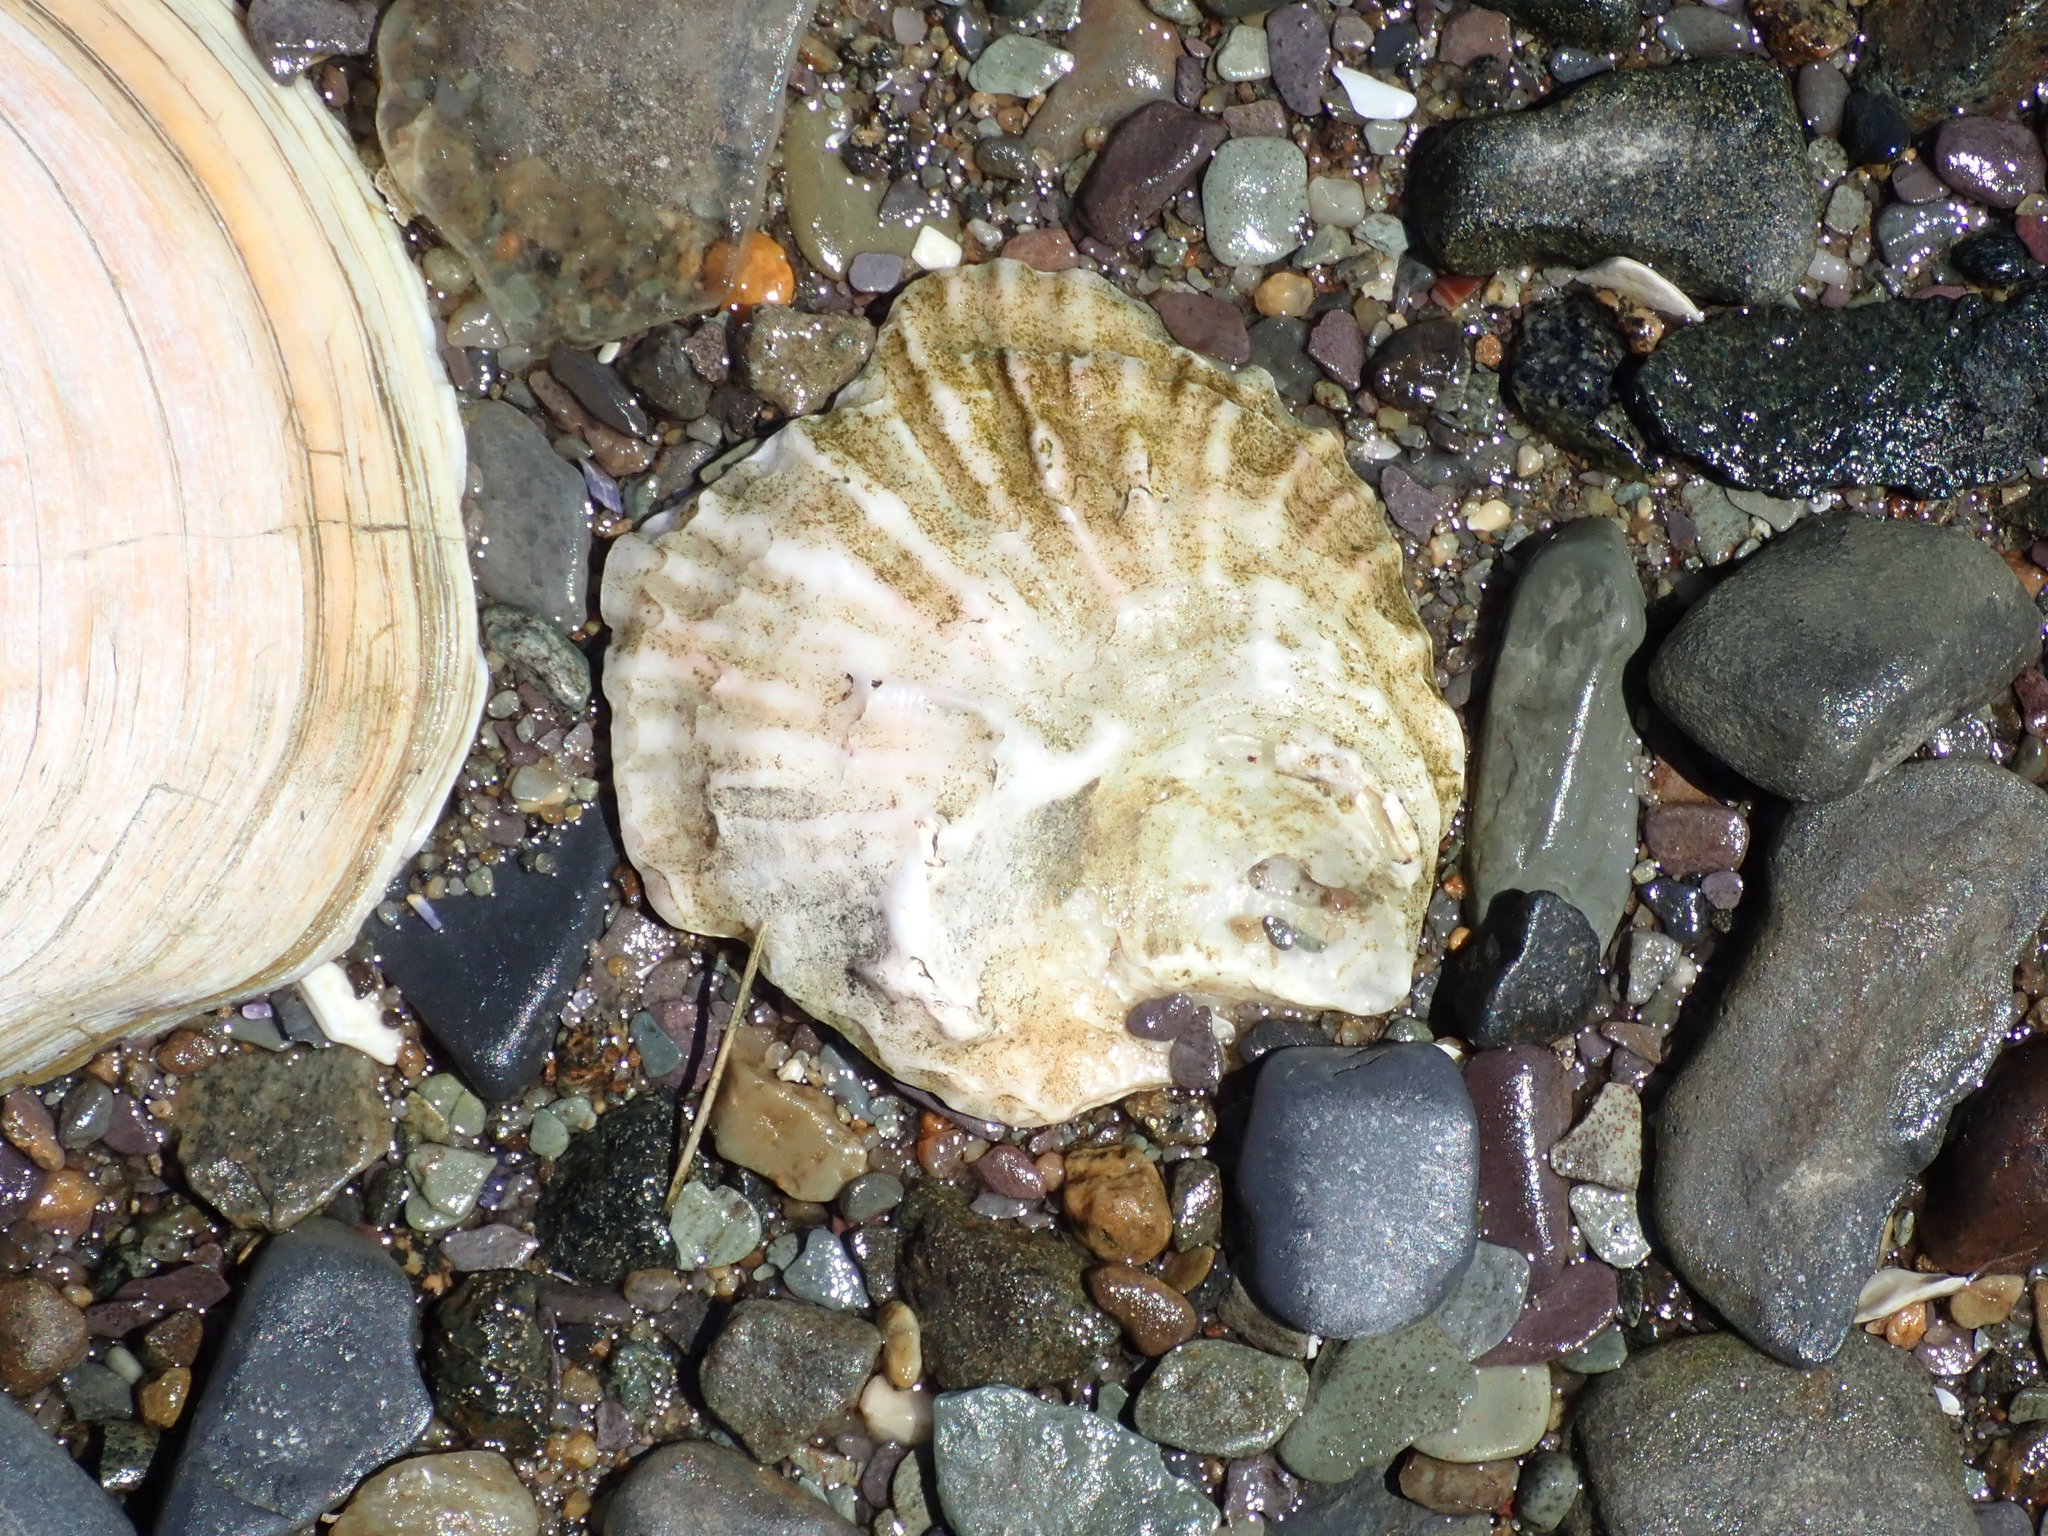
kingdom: Animalia
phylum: Mollusca
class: Bivalvia
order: Ostreida
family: Ostreidae
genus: Ostrea
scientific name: Ostrea edulis
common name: Flat oyster
